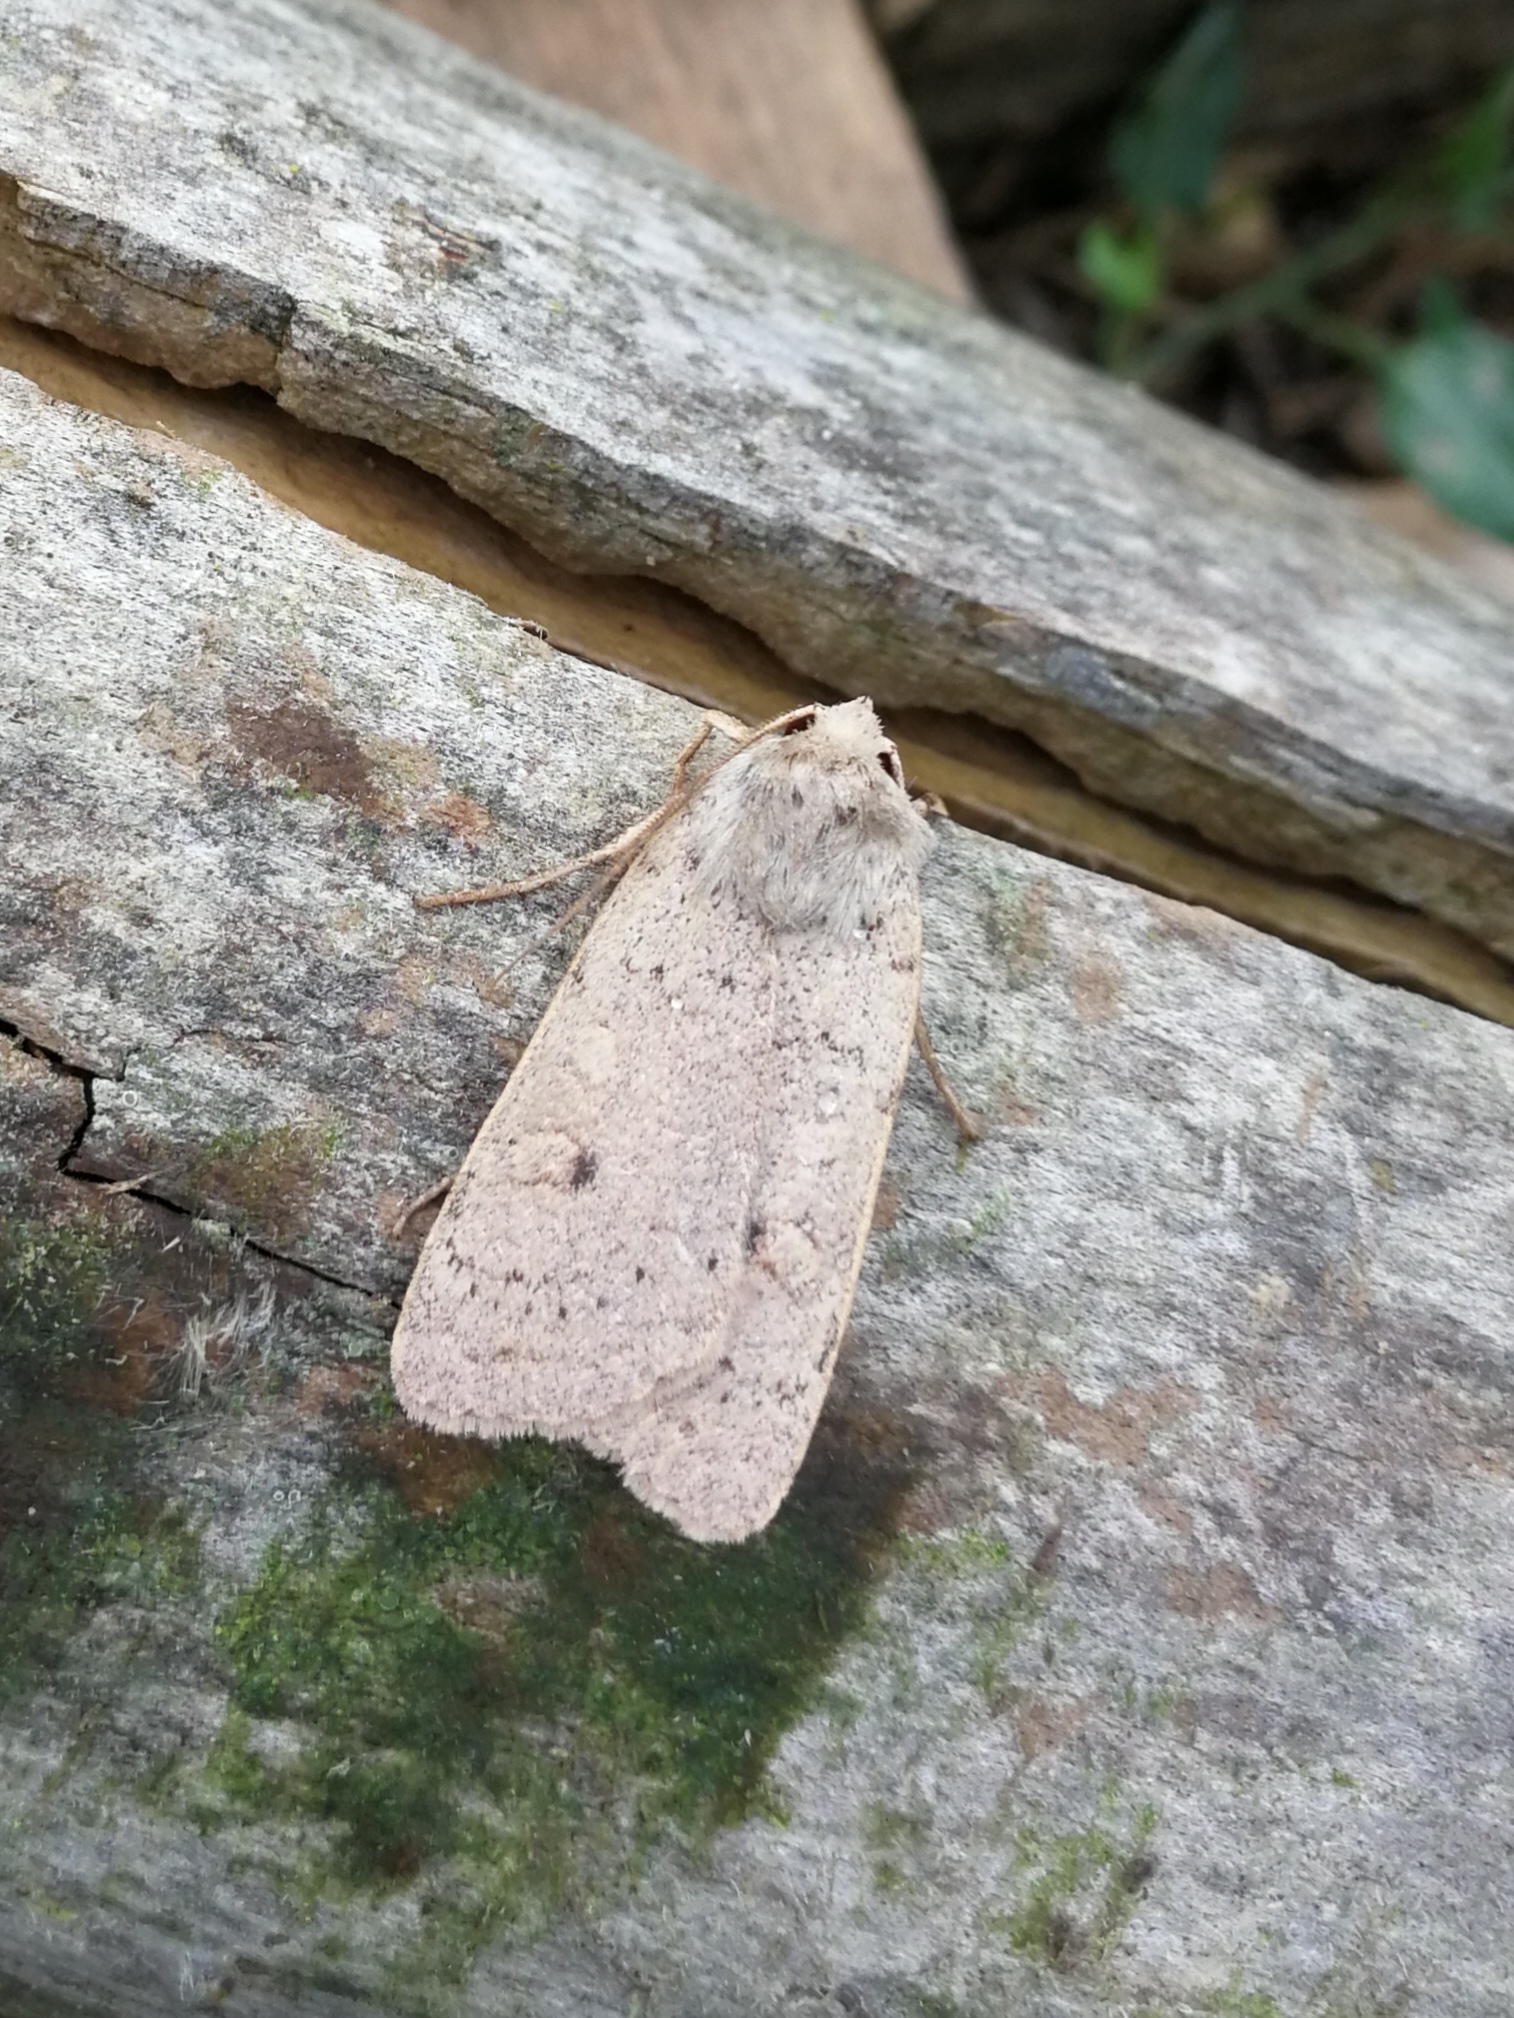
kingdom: Animalia
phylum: Arthropoda
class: Insecta
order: Lepidoptera
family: Noctuidae
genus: Xestia
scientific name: Xestia castanea
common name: Neglected rustic
